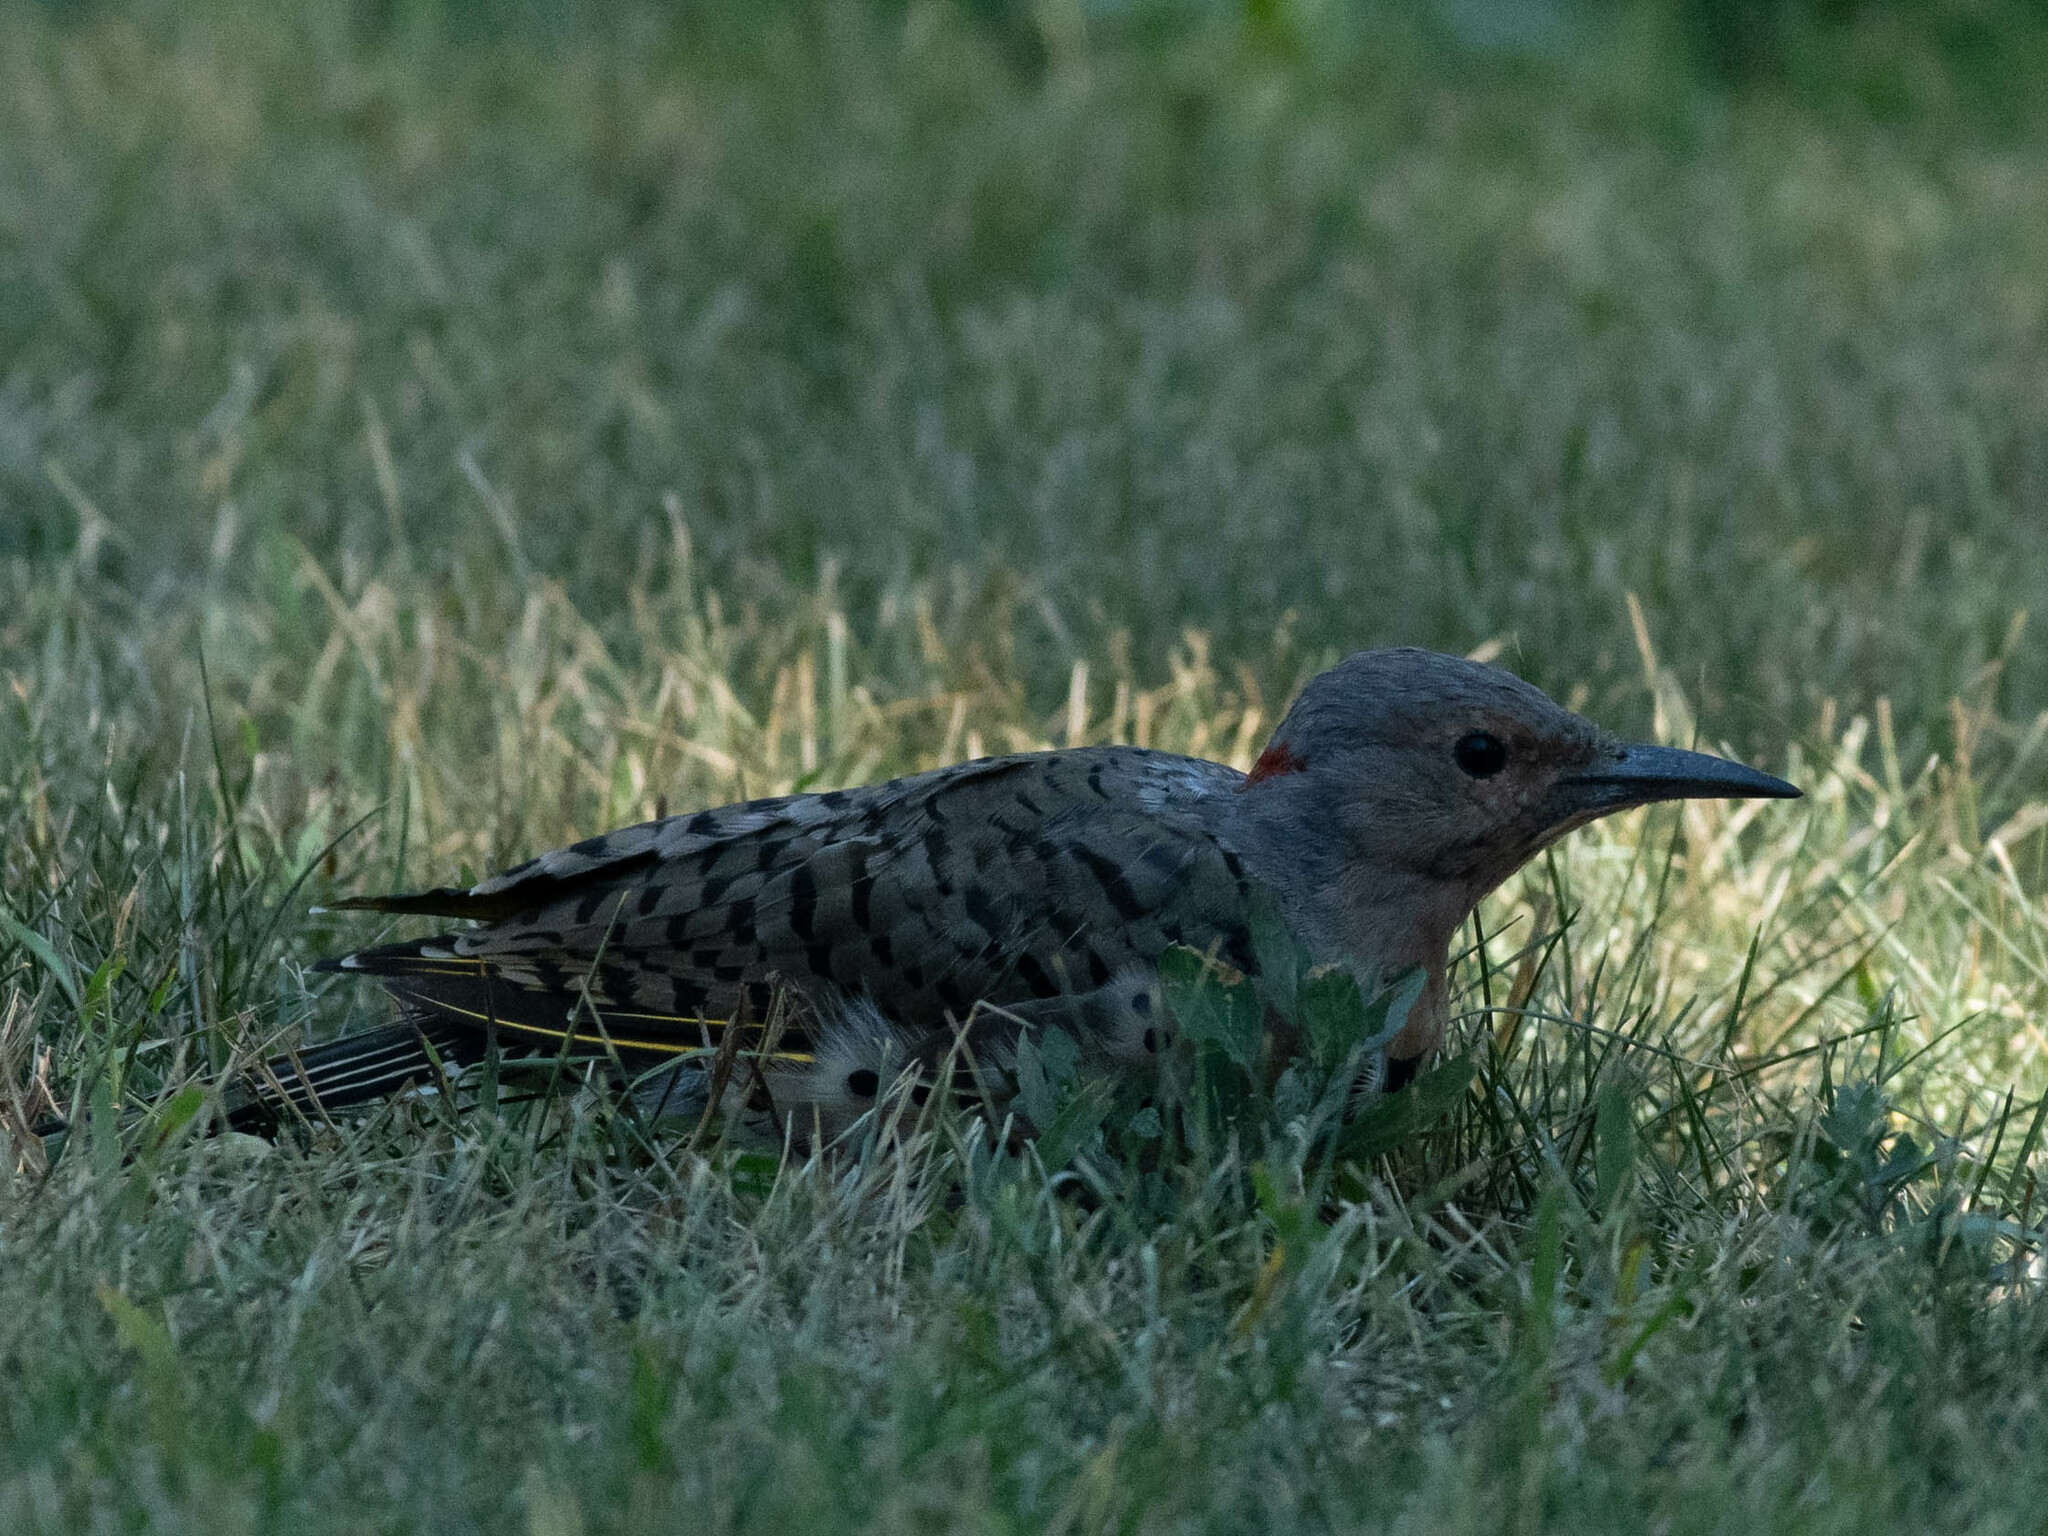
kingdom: Animalia
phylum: Chordata
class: Aves
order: Piciformes
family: Picidae
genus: Colaptes
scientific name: Colaptes auratus
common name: Northern flicker
